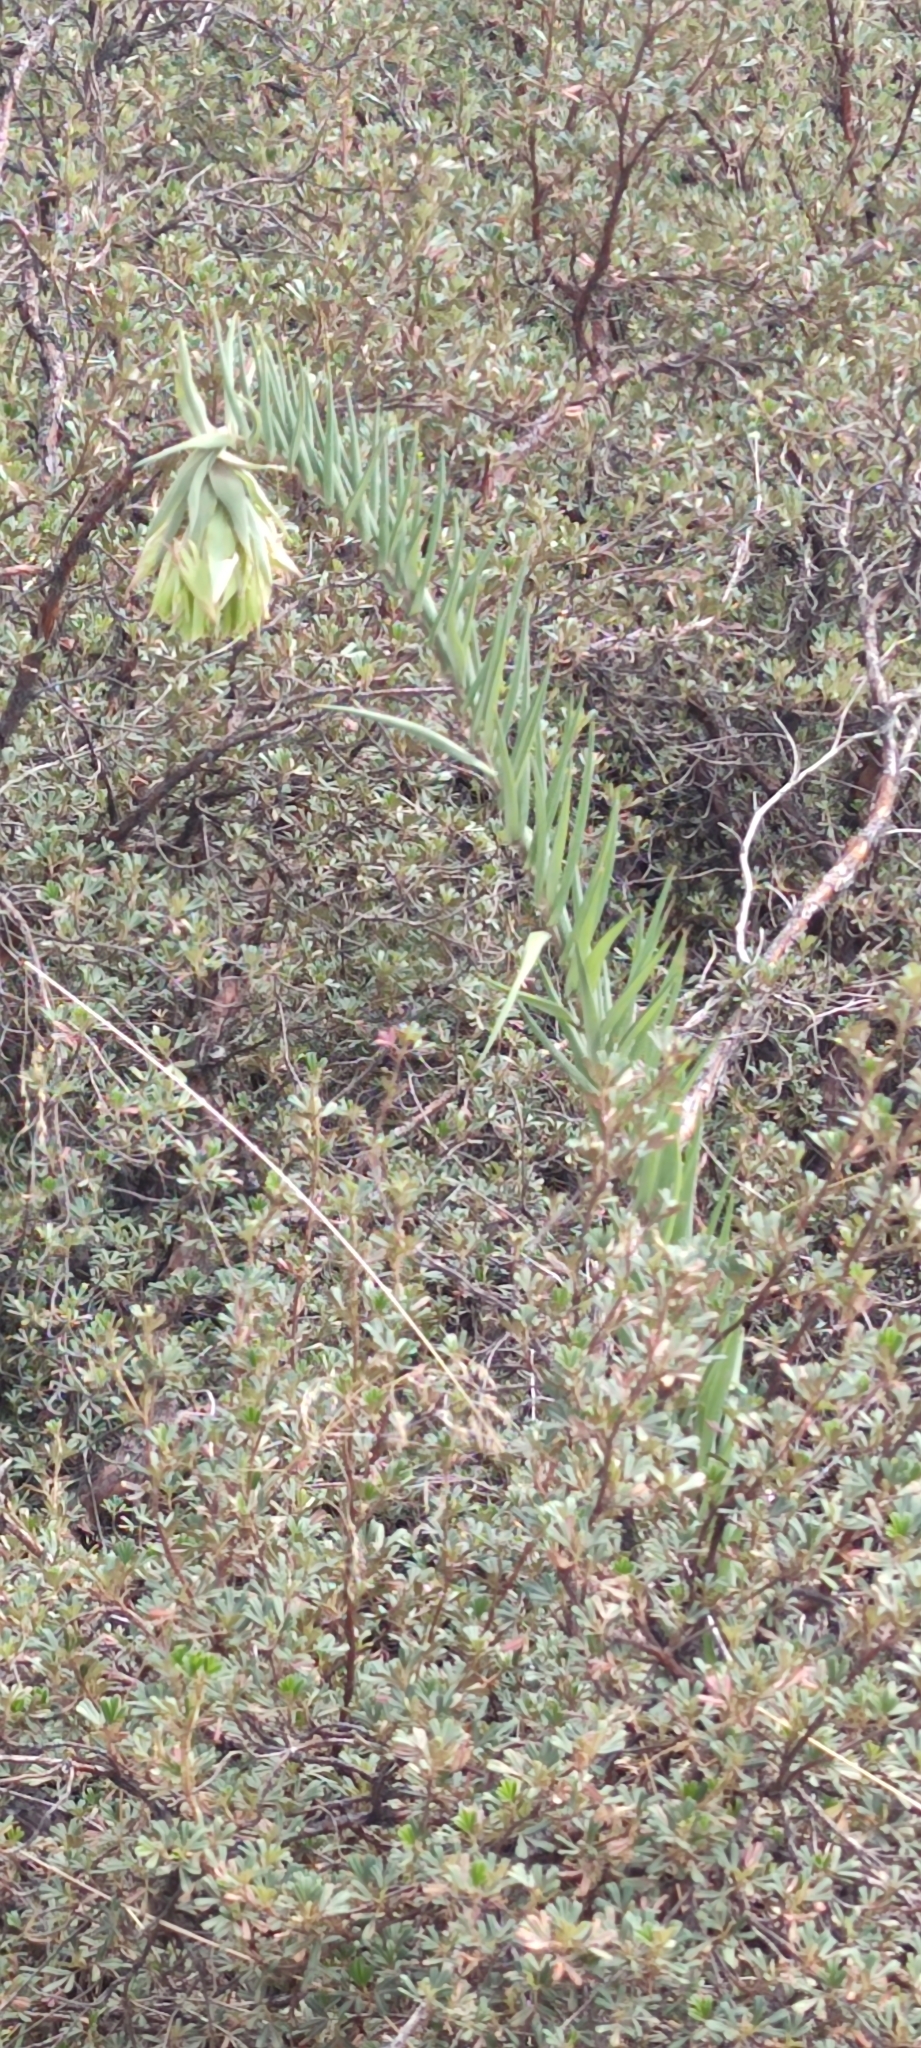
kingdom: Plantae
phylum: Tracheophyta
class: Liliopsida
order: Liliales
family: Alstroemeriaceae
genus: Bomarea
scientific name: Bomarea involucrosa
